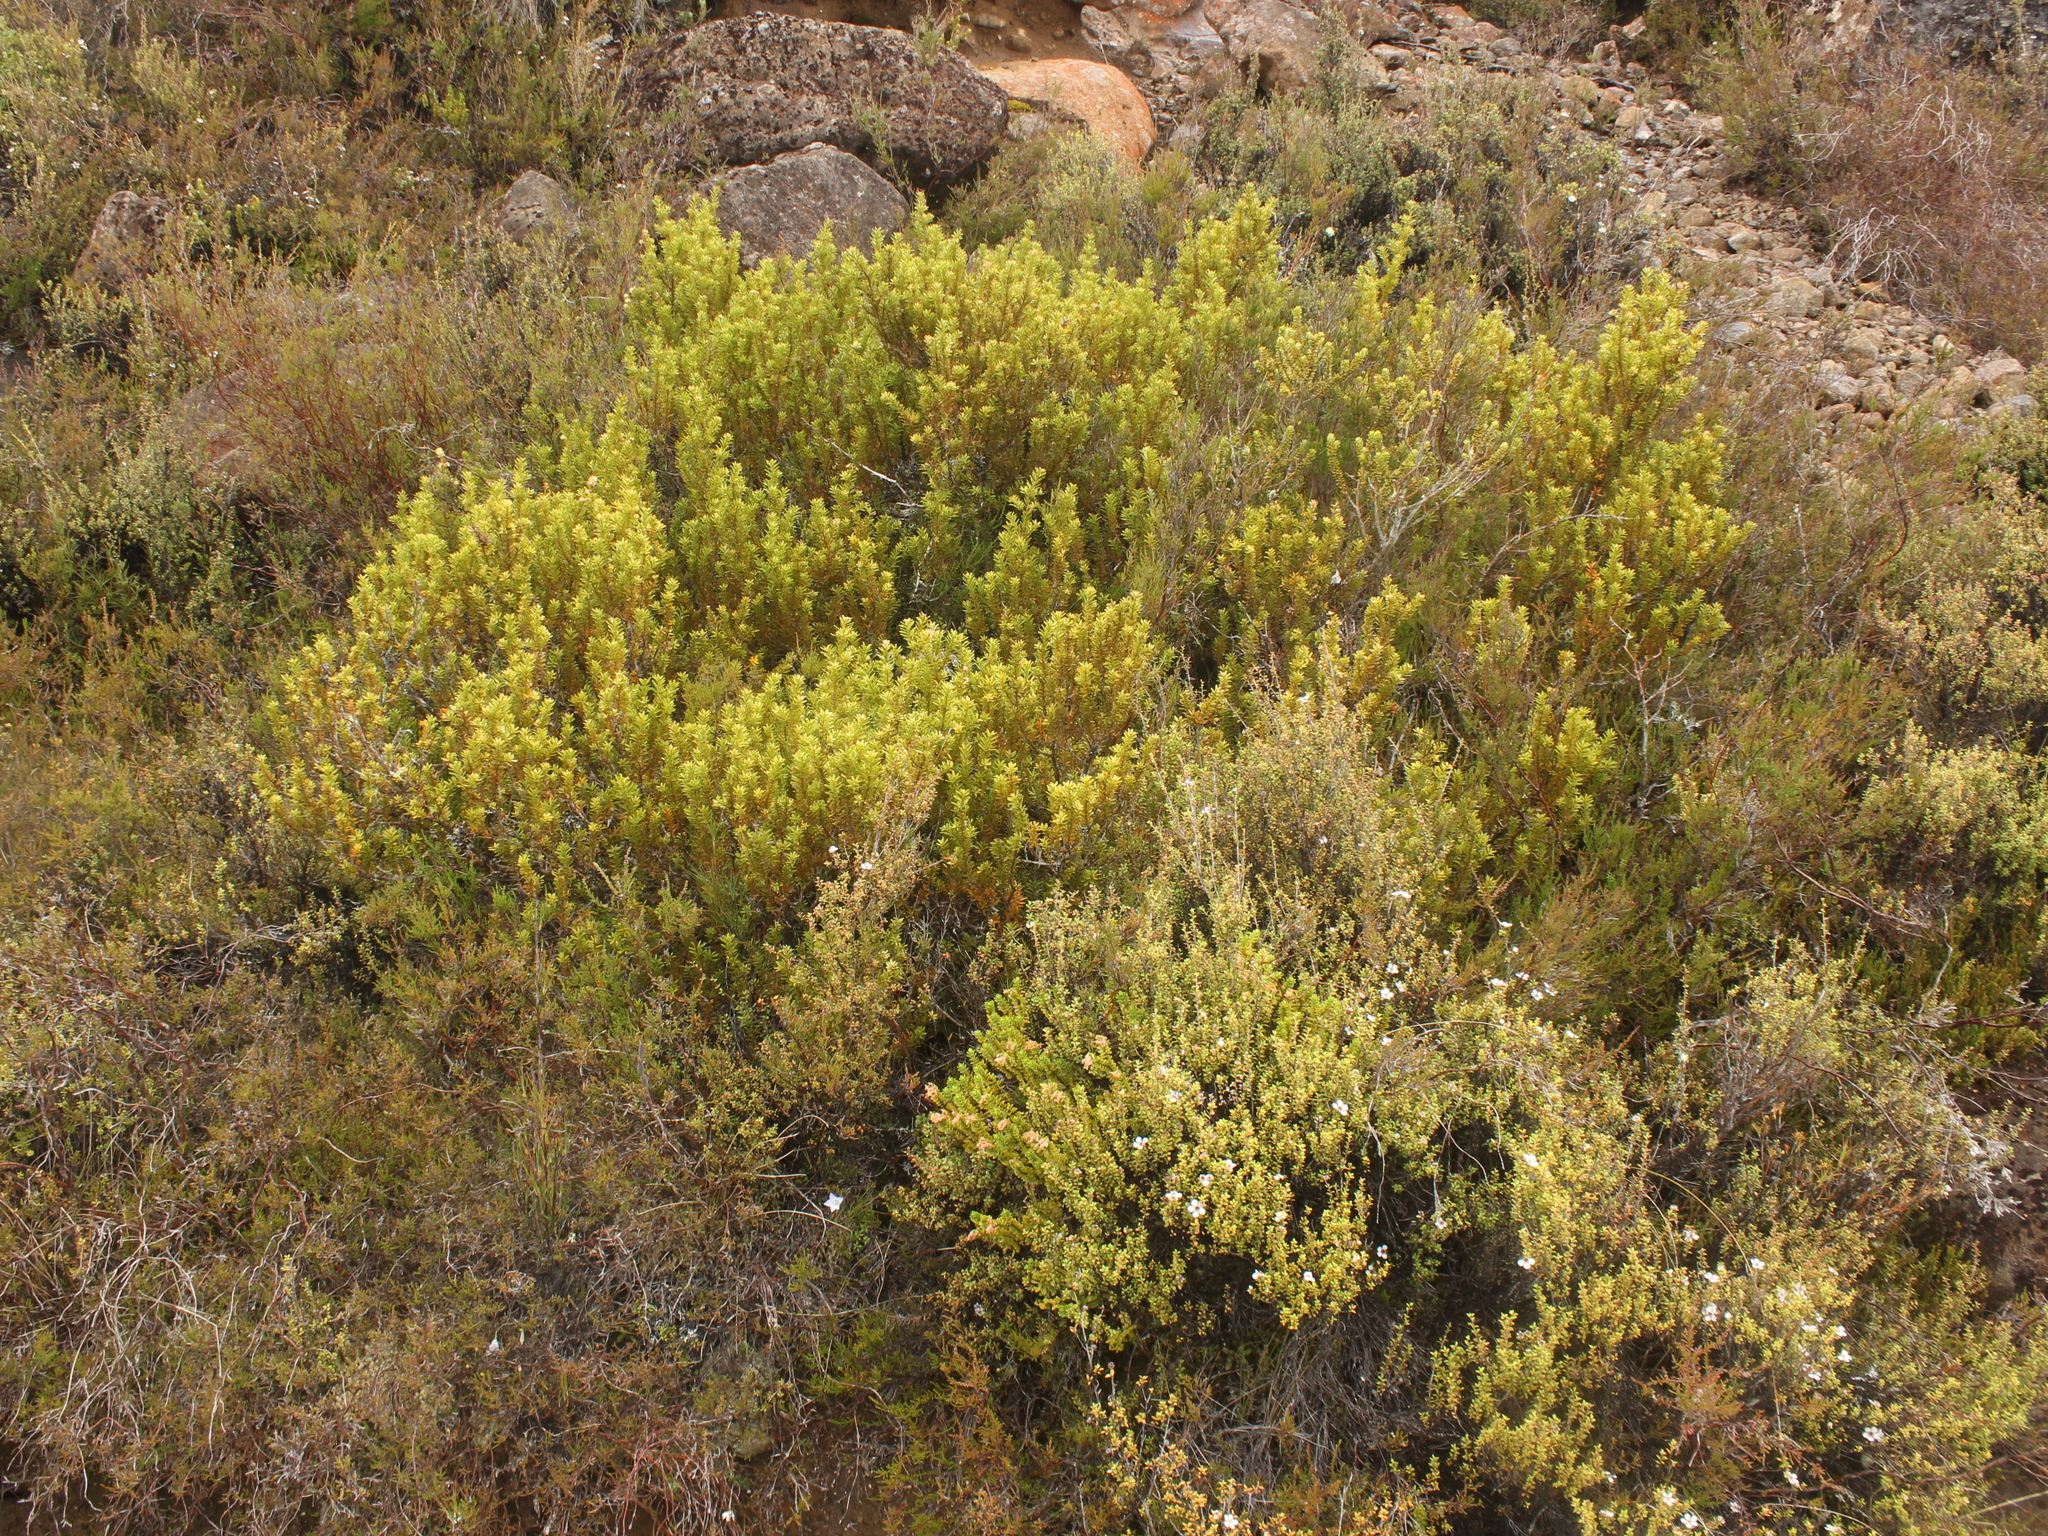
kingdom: Plantae
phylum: Tracheophyta
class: Pinopsida
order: Pinales
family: Podocarpaceae
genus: Podocarpus
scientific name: Podocarpus nivalis
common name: Alpine totara
